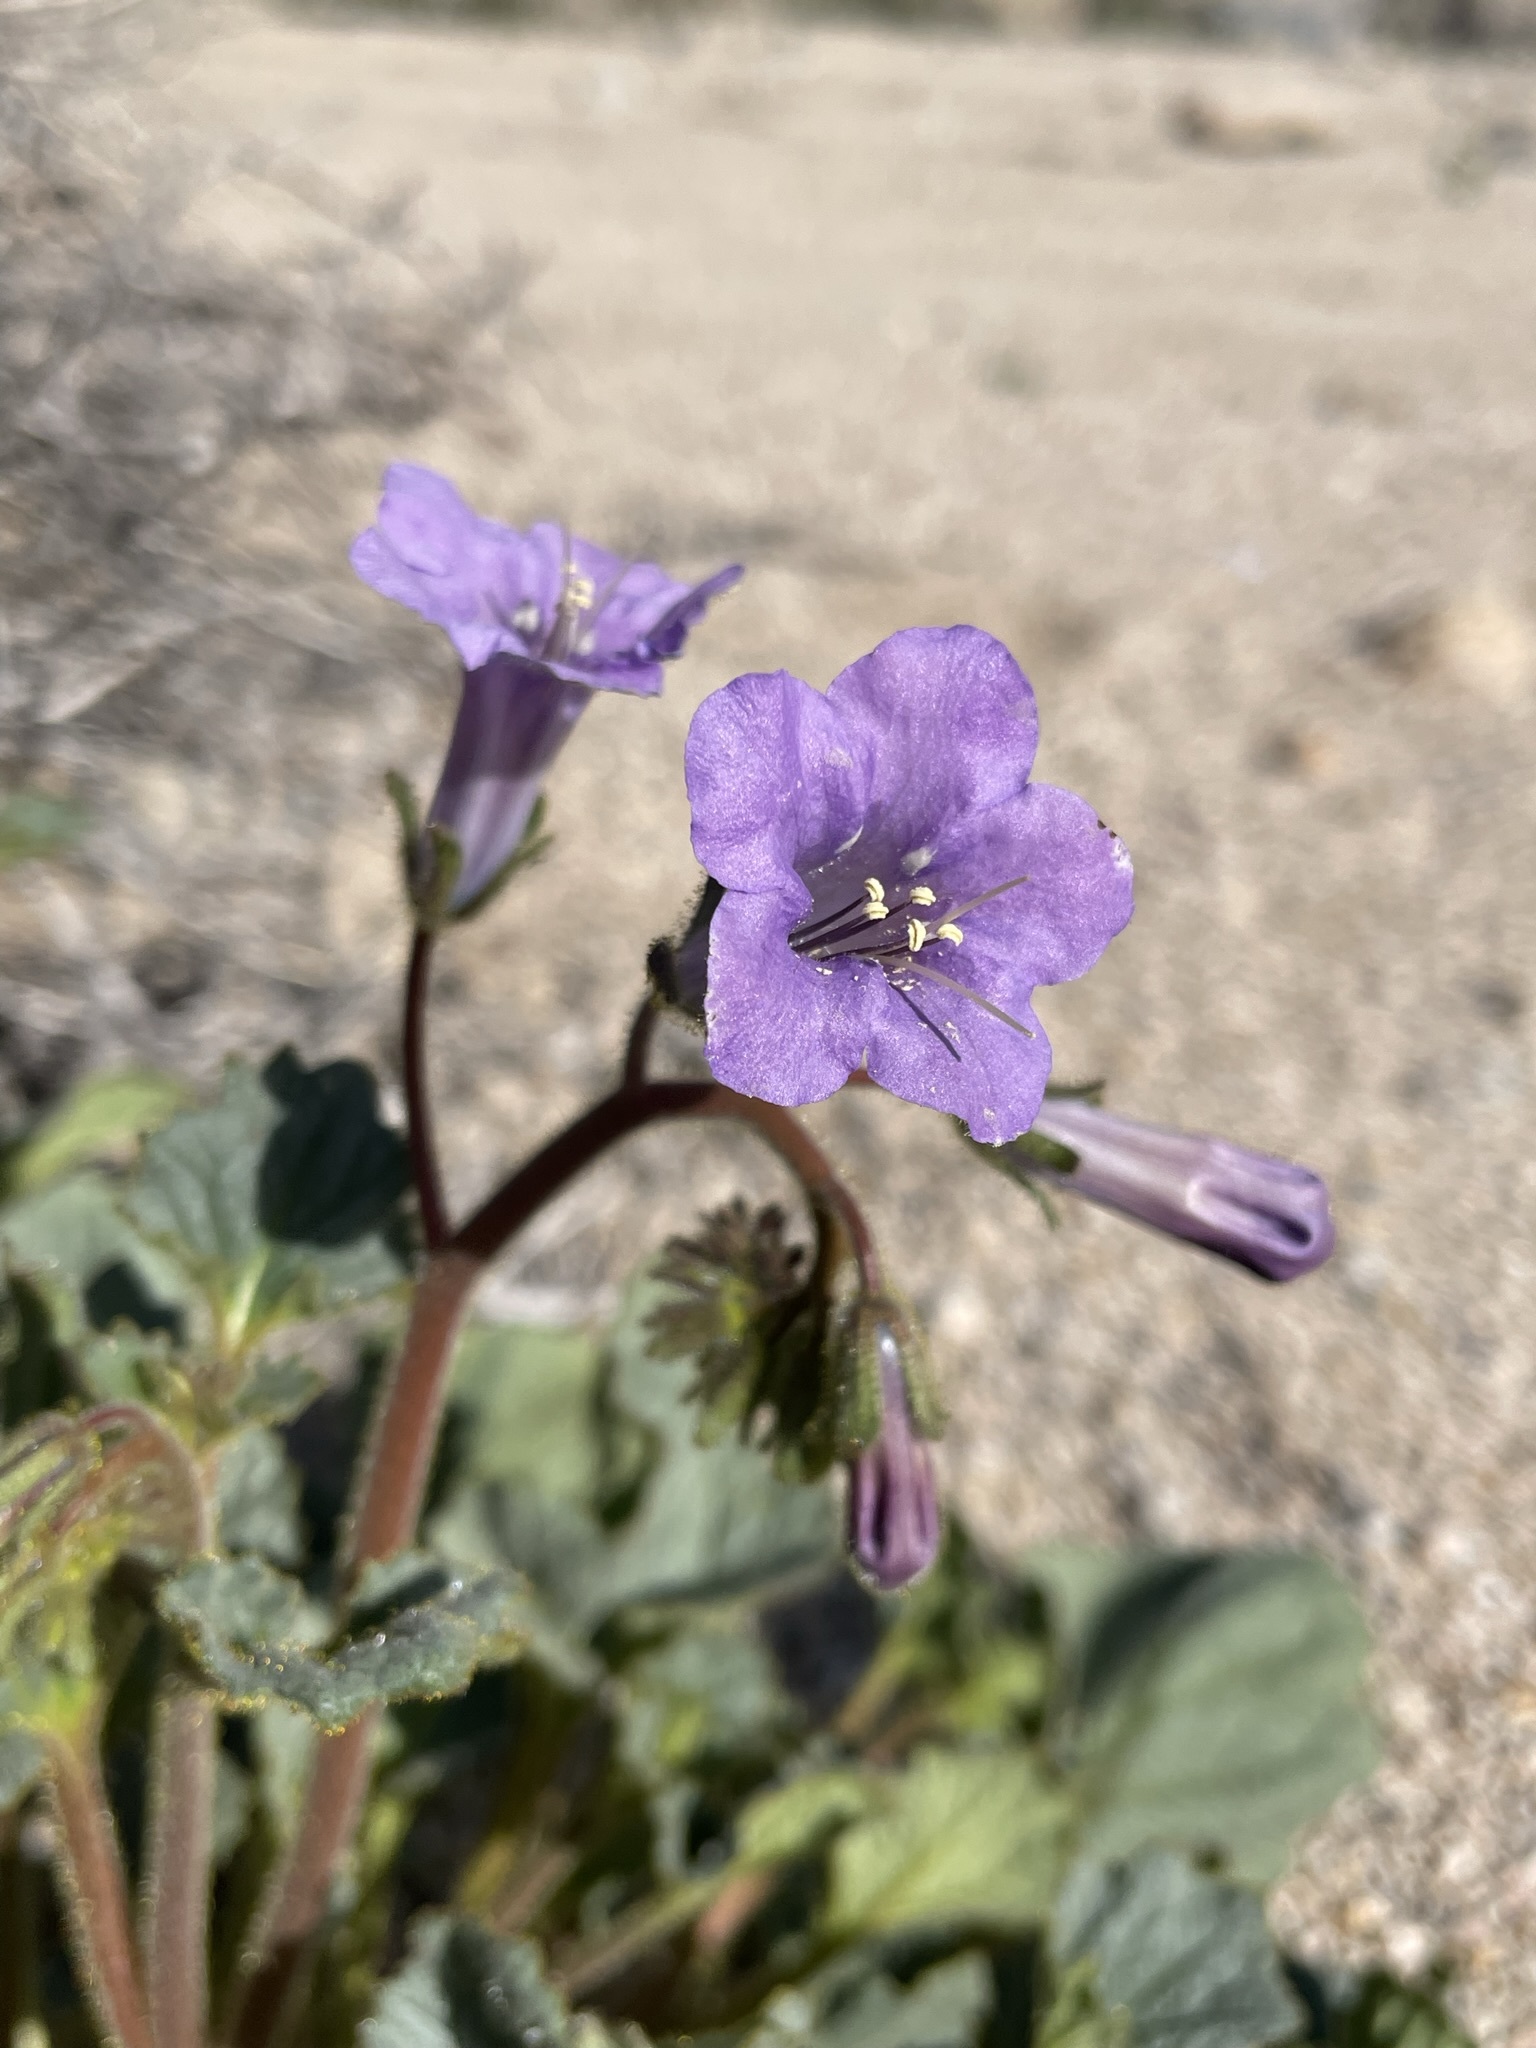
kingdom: Plantae
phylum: Tracheophyta
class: Magnoliopsida
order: Boraginales
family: Hydrophyllaceae
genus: Phacelia
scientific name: Phacelia campanularia
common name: California bluebell
